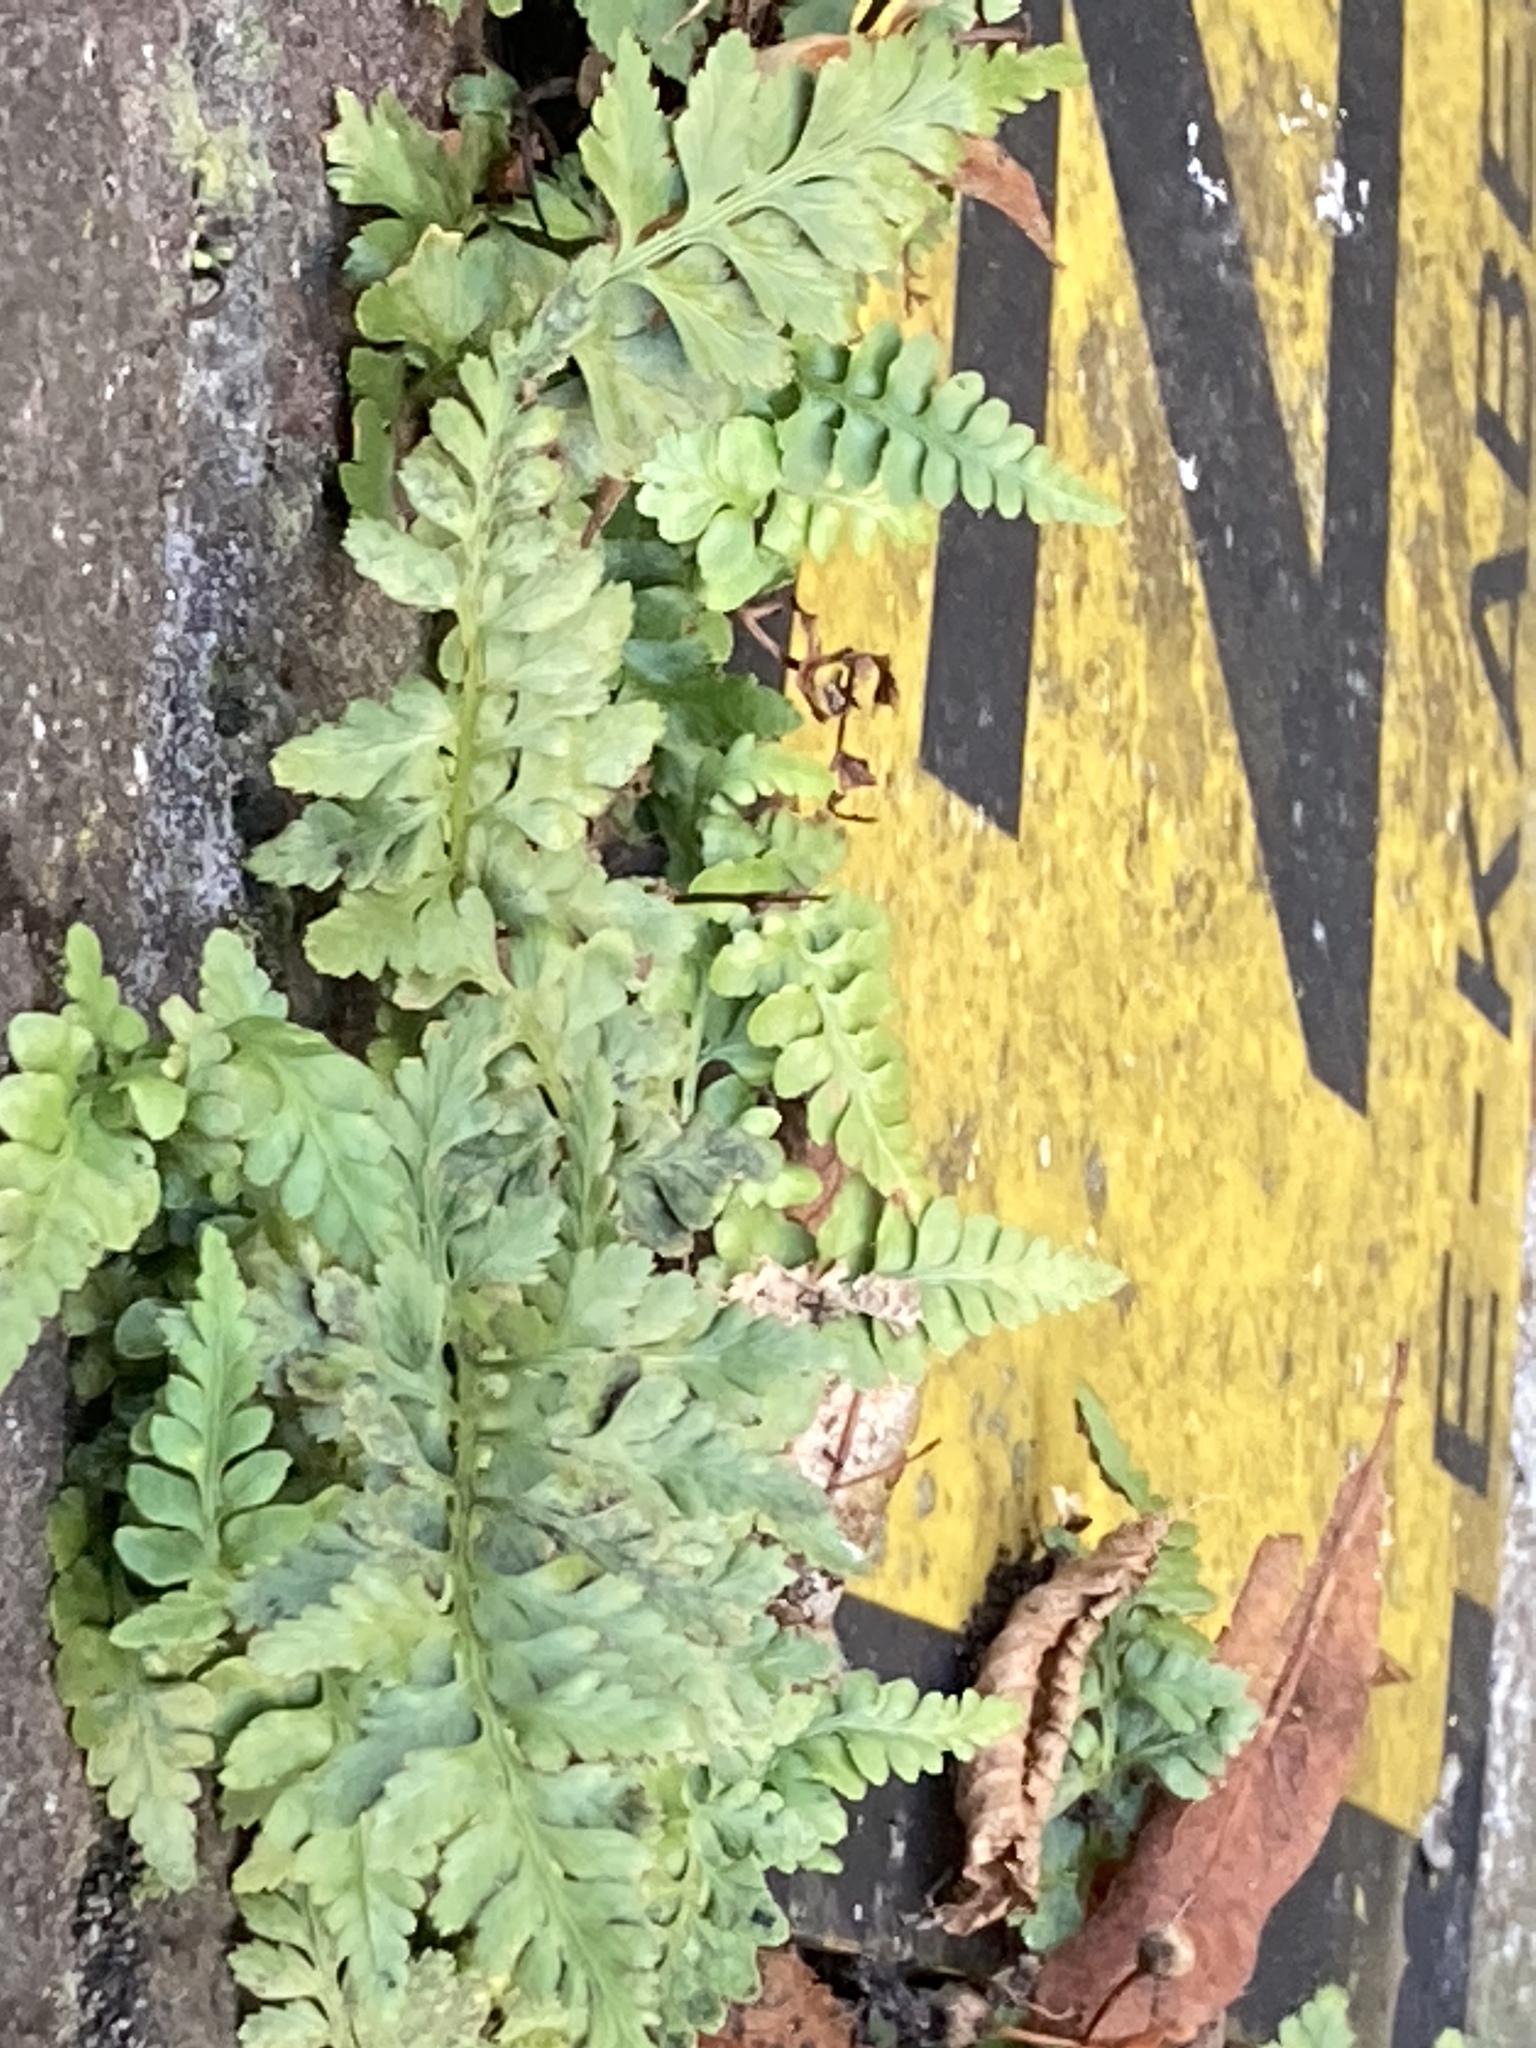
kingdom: Plantae
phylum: Tracheophyta
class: Polypodiopsida
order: Polypodiales
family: Aspleniaceae
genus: Asplenium
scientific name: Asplenium adiantum-nigrum
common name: Black spleenwort
